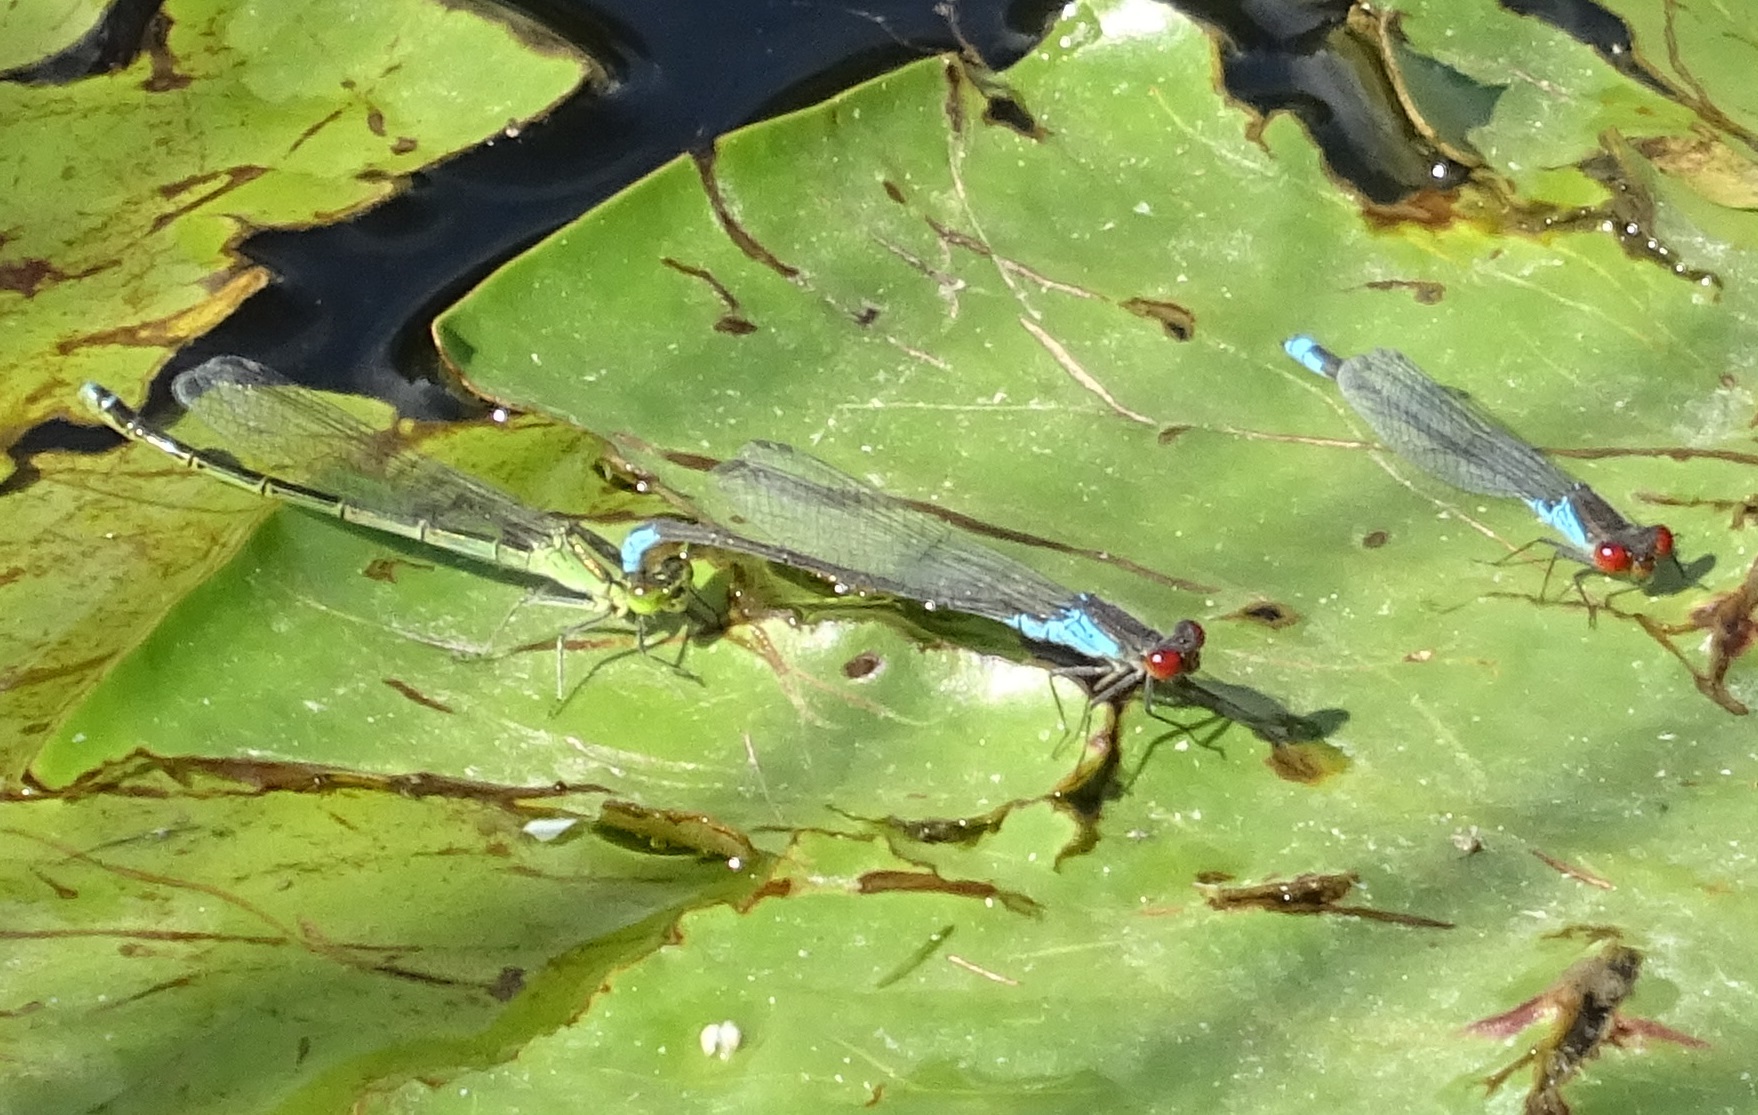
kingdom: Animalia
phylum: Arthropoda
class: Insecta
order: Odonata
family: Coenagrionidae
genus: Erythromma
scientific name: Erythromma viridulum
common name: Small red-eyed damselfly
